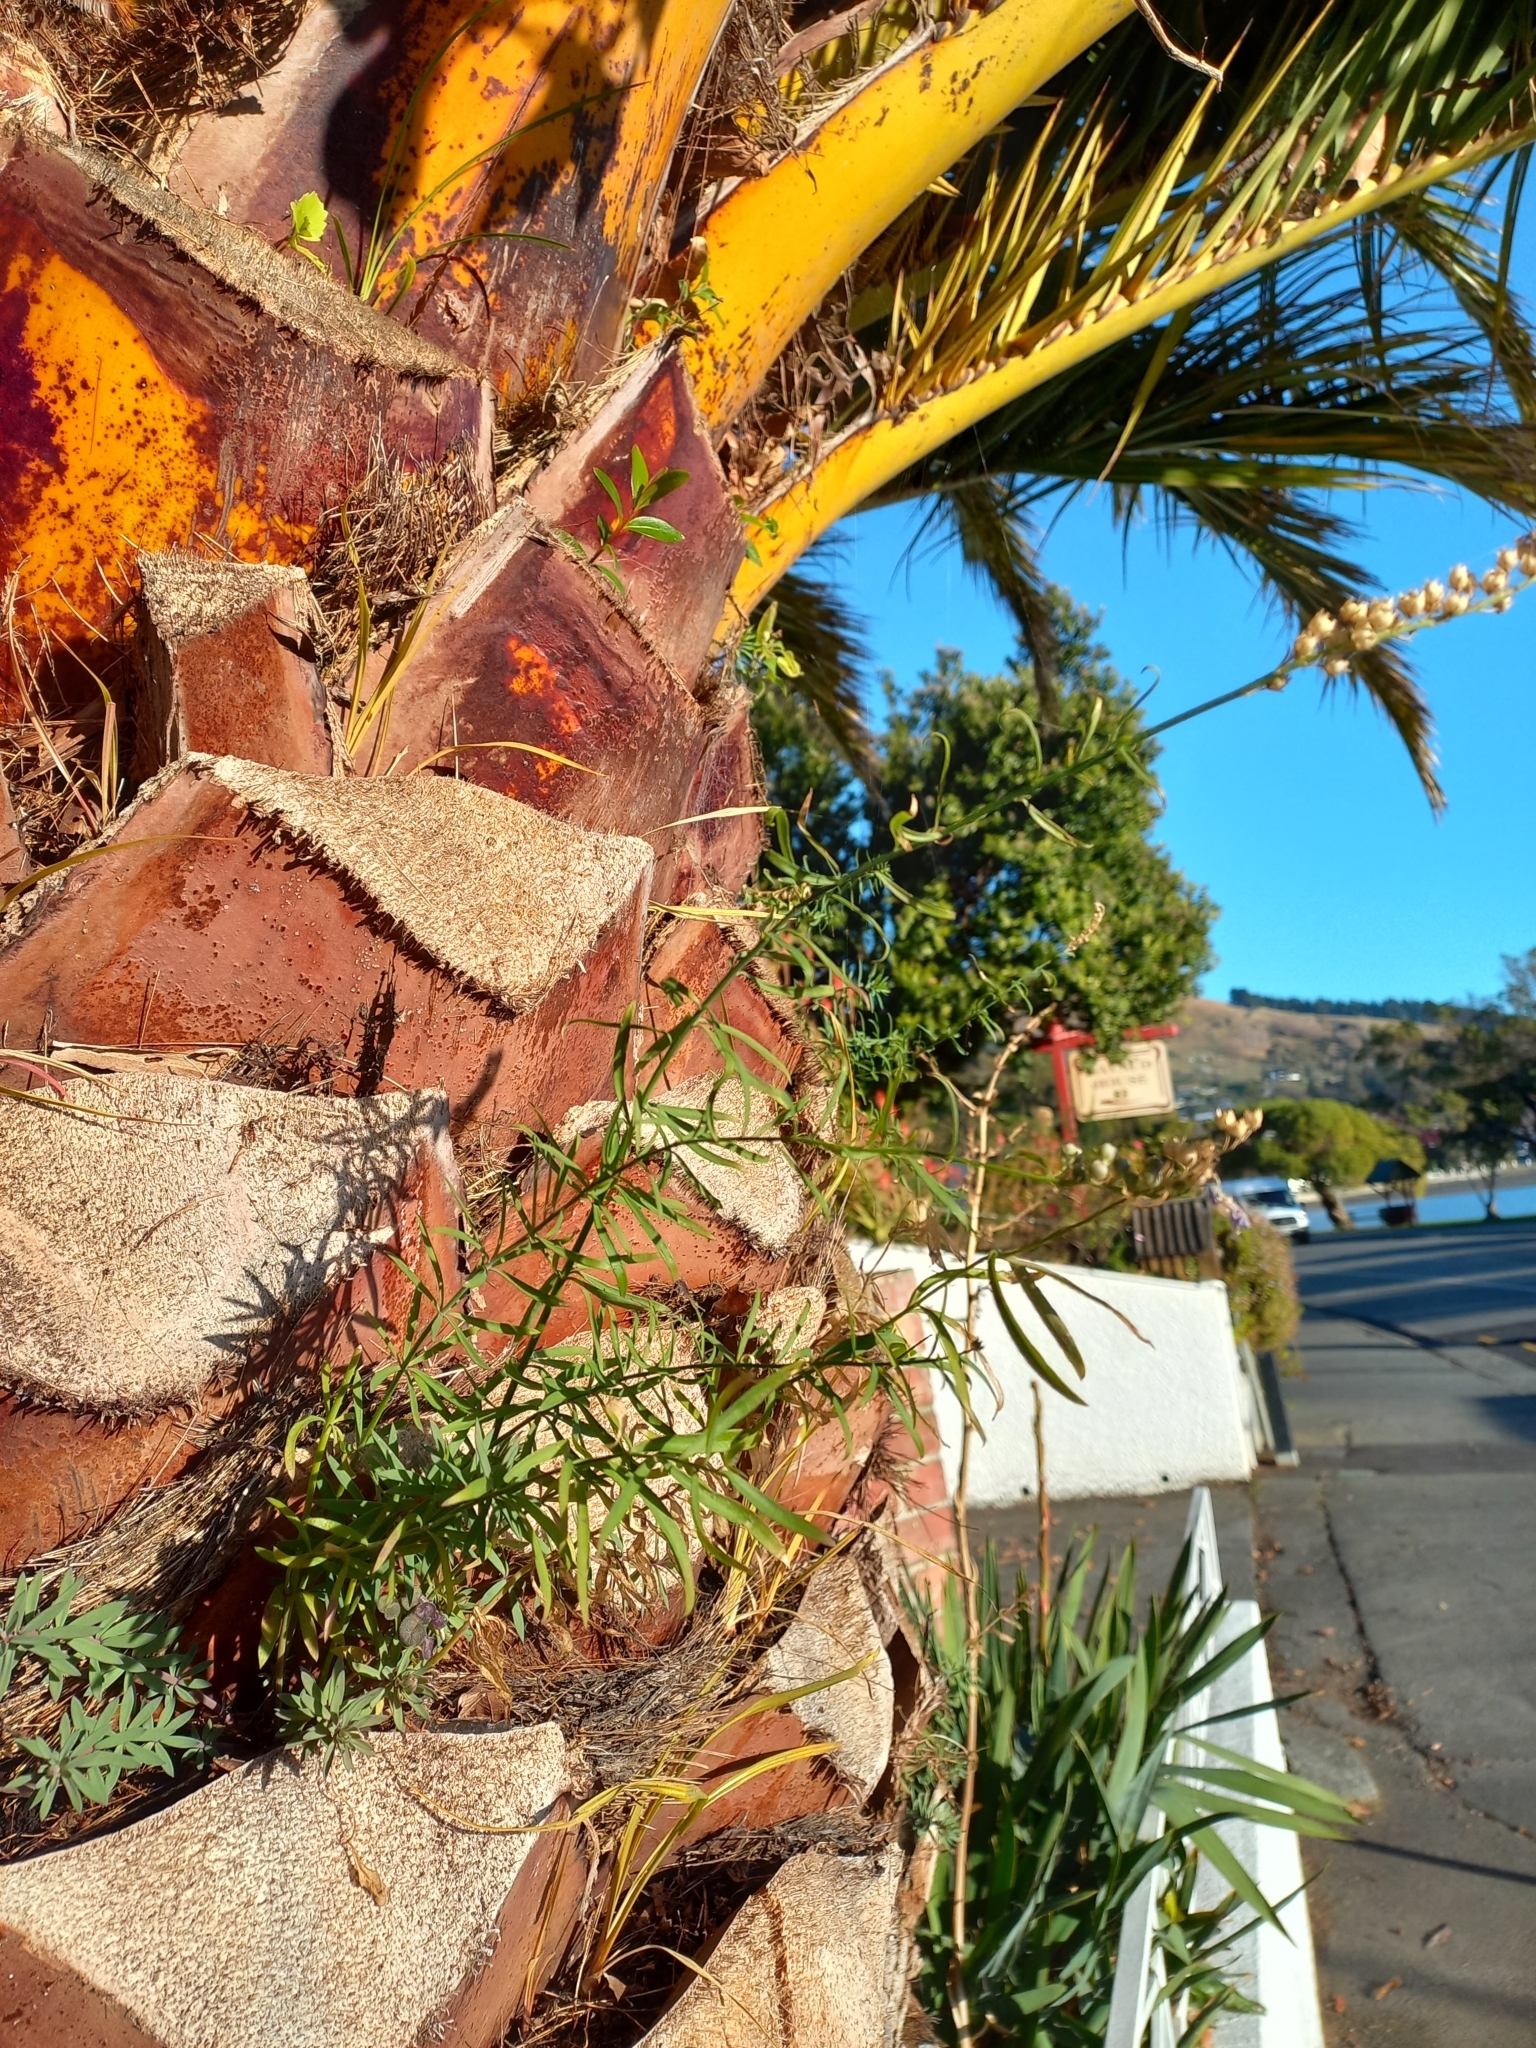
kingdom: Plantae
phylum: Tracheophyta
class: Magnoliopsida
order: Lamiales
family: Plantaginaceae
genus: Linaria
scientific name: Linaria purpurea
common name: Purple toadflax
